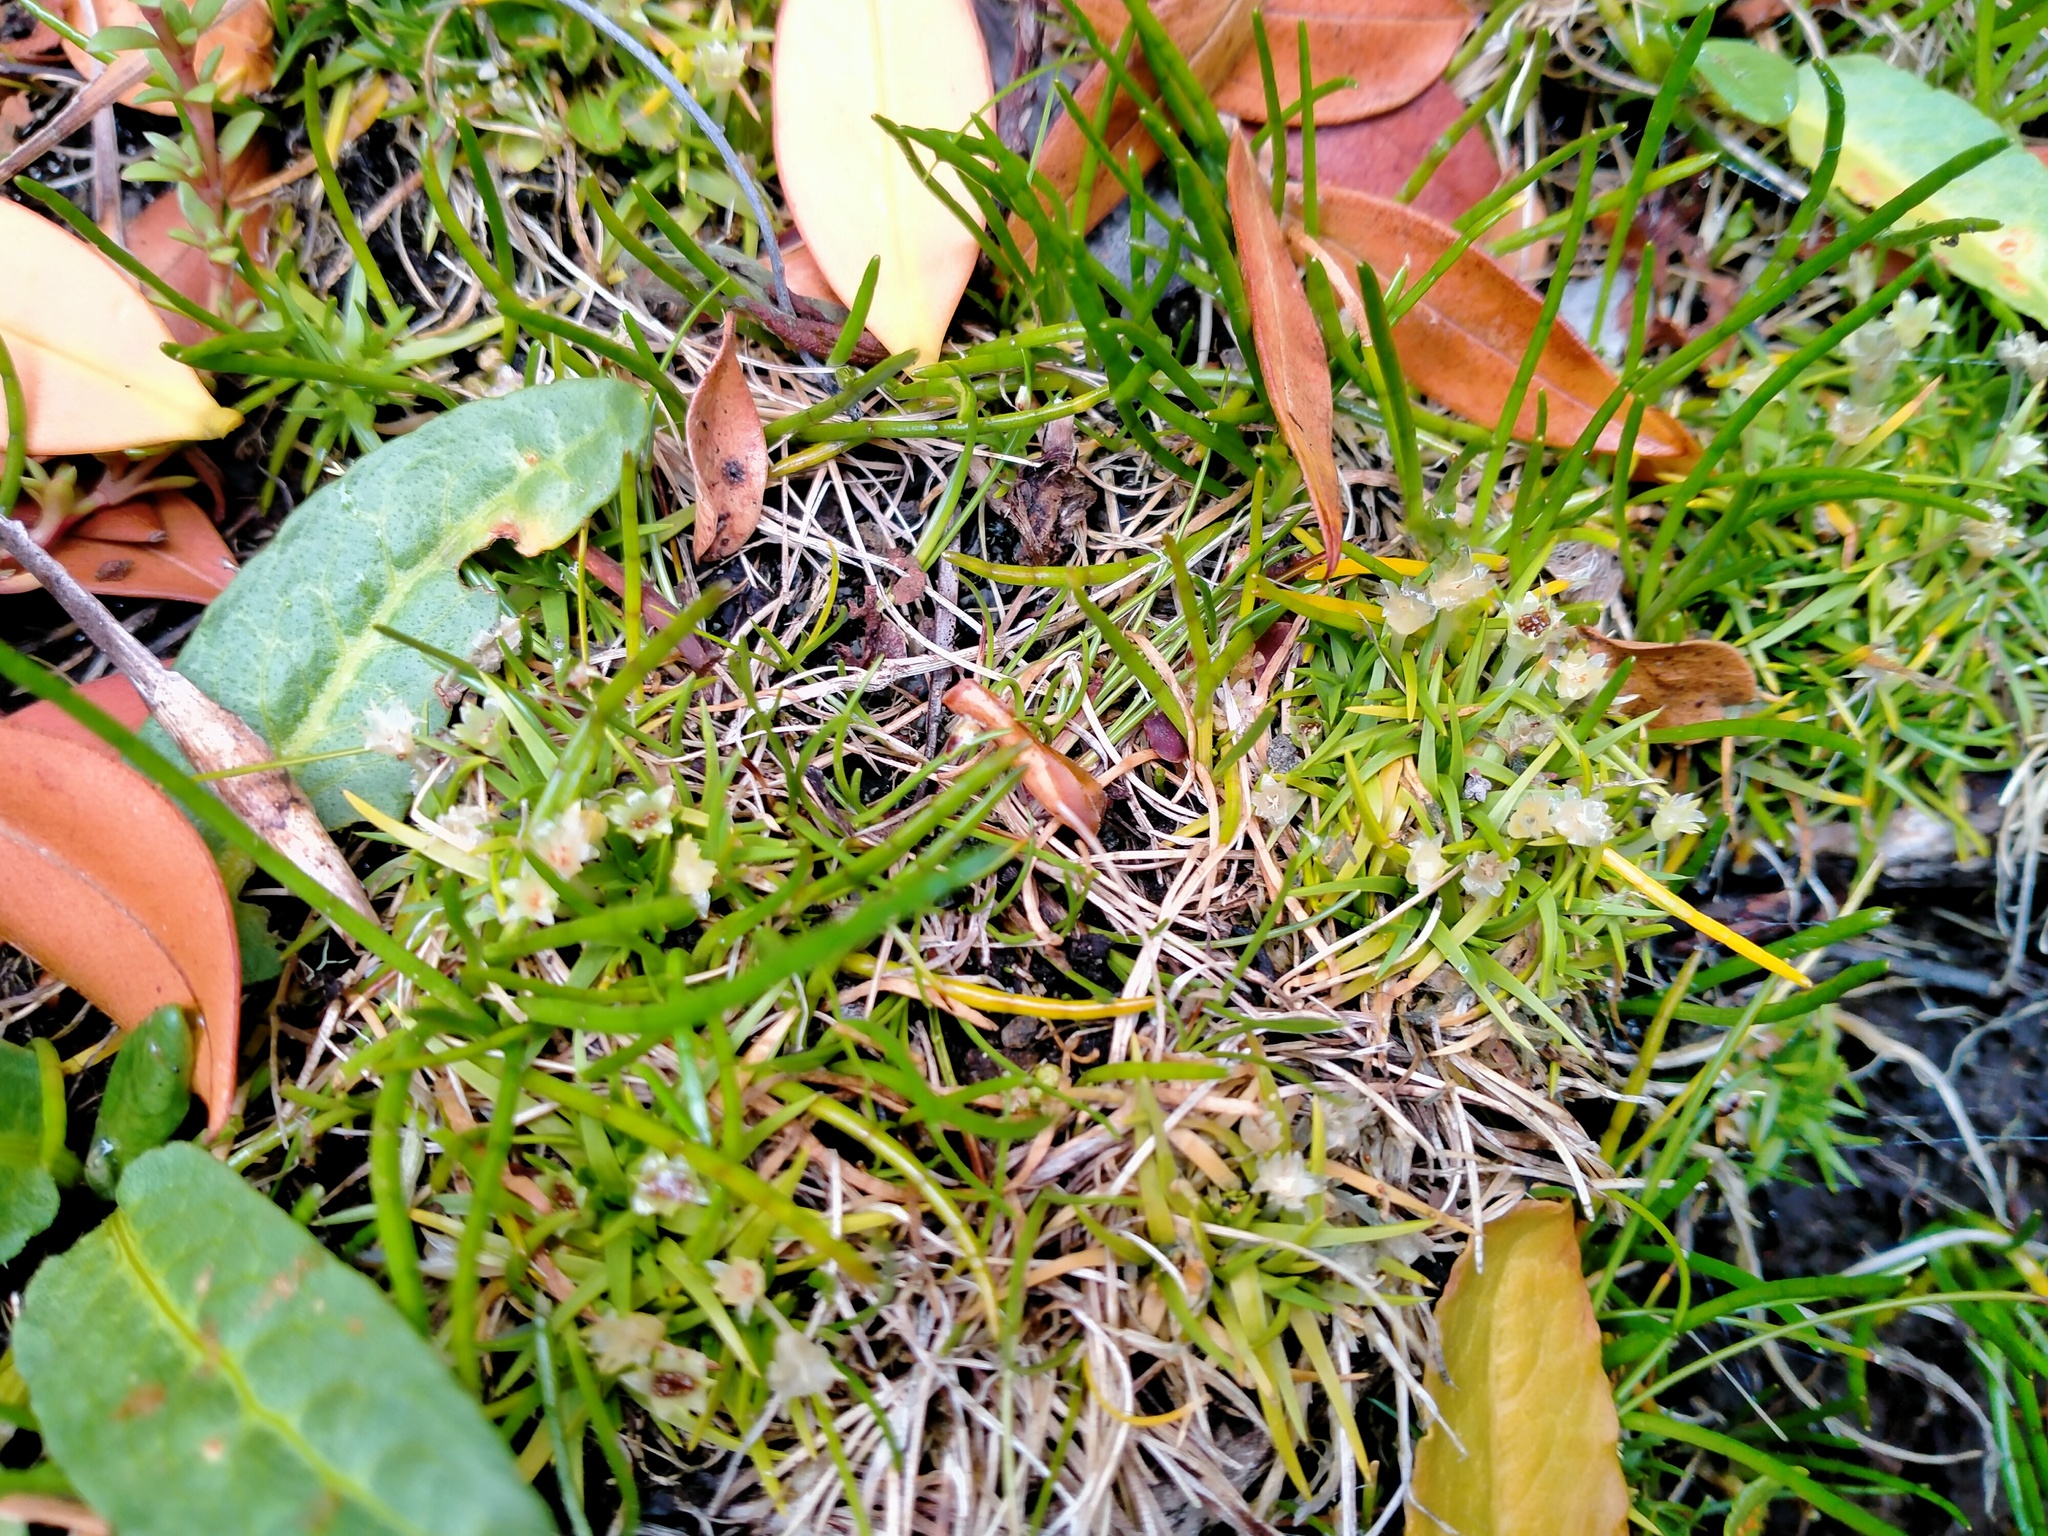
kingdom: Plantae
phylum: Tracheophyta
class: Magnoliopsida
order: Caryophyllales
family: Caryophyllaceae
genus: Colobanthus
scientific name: Colobanthus apetalus
